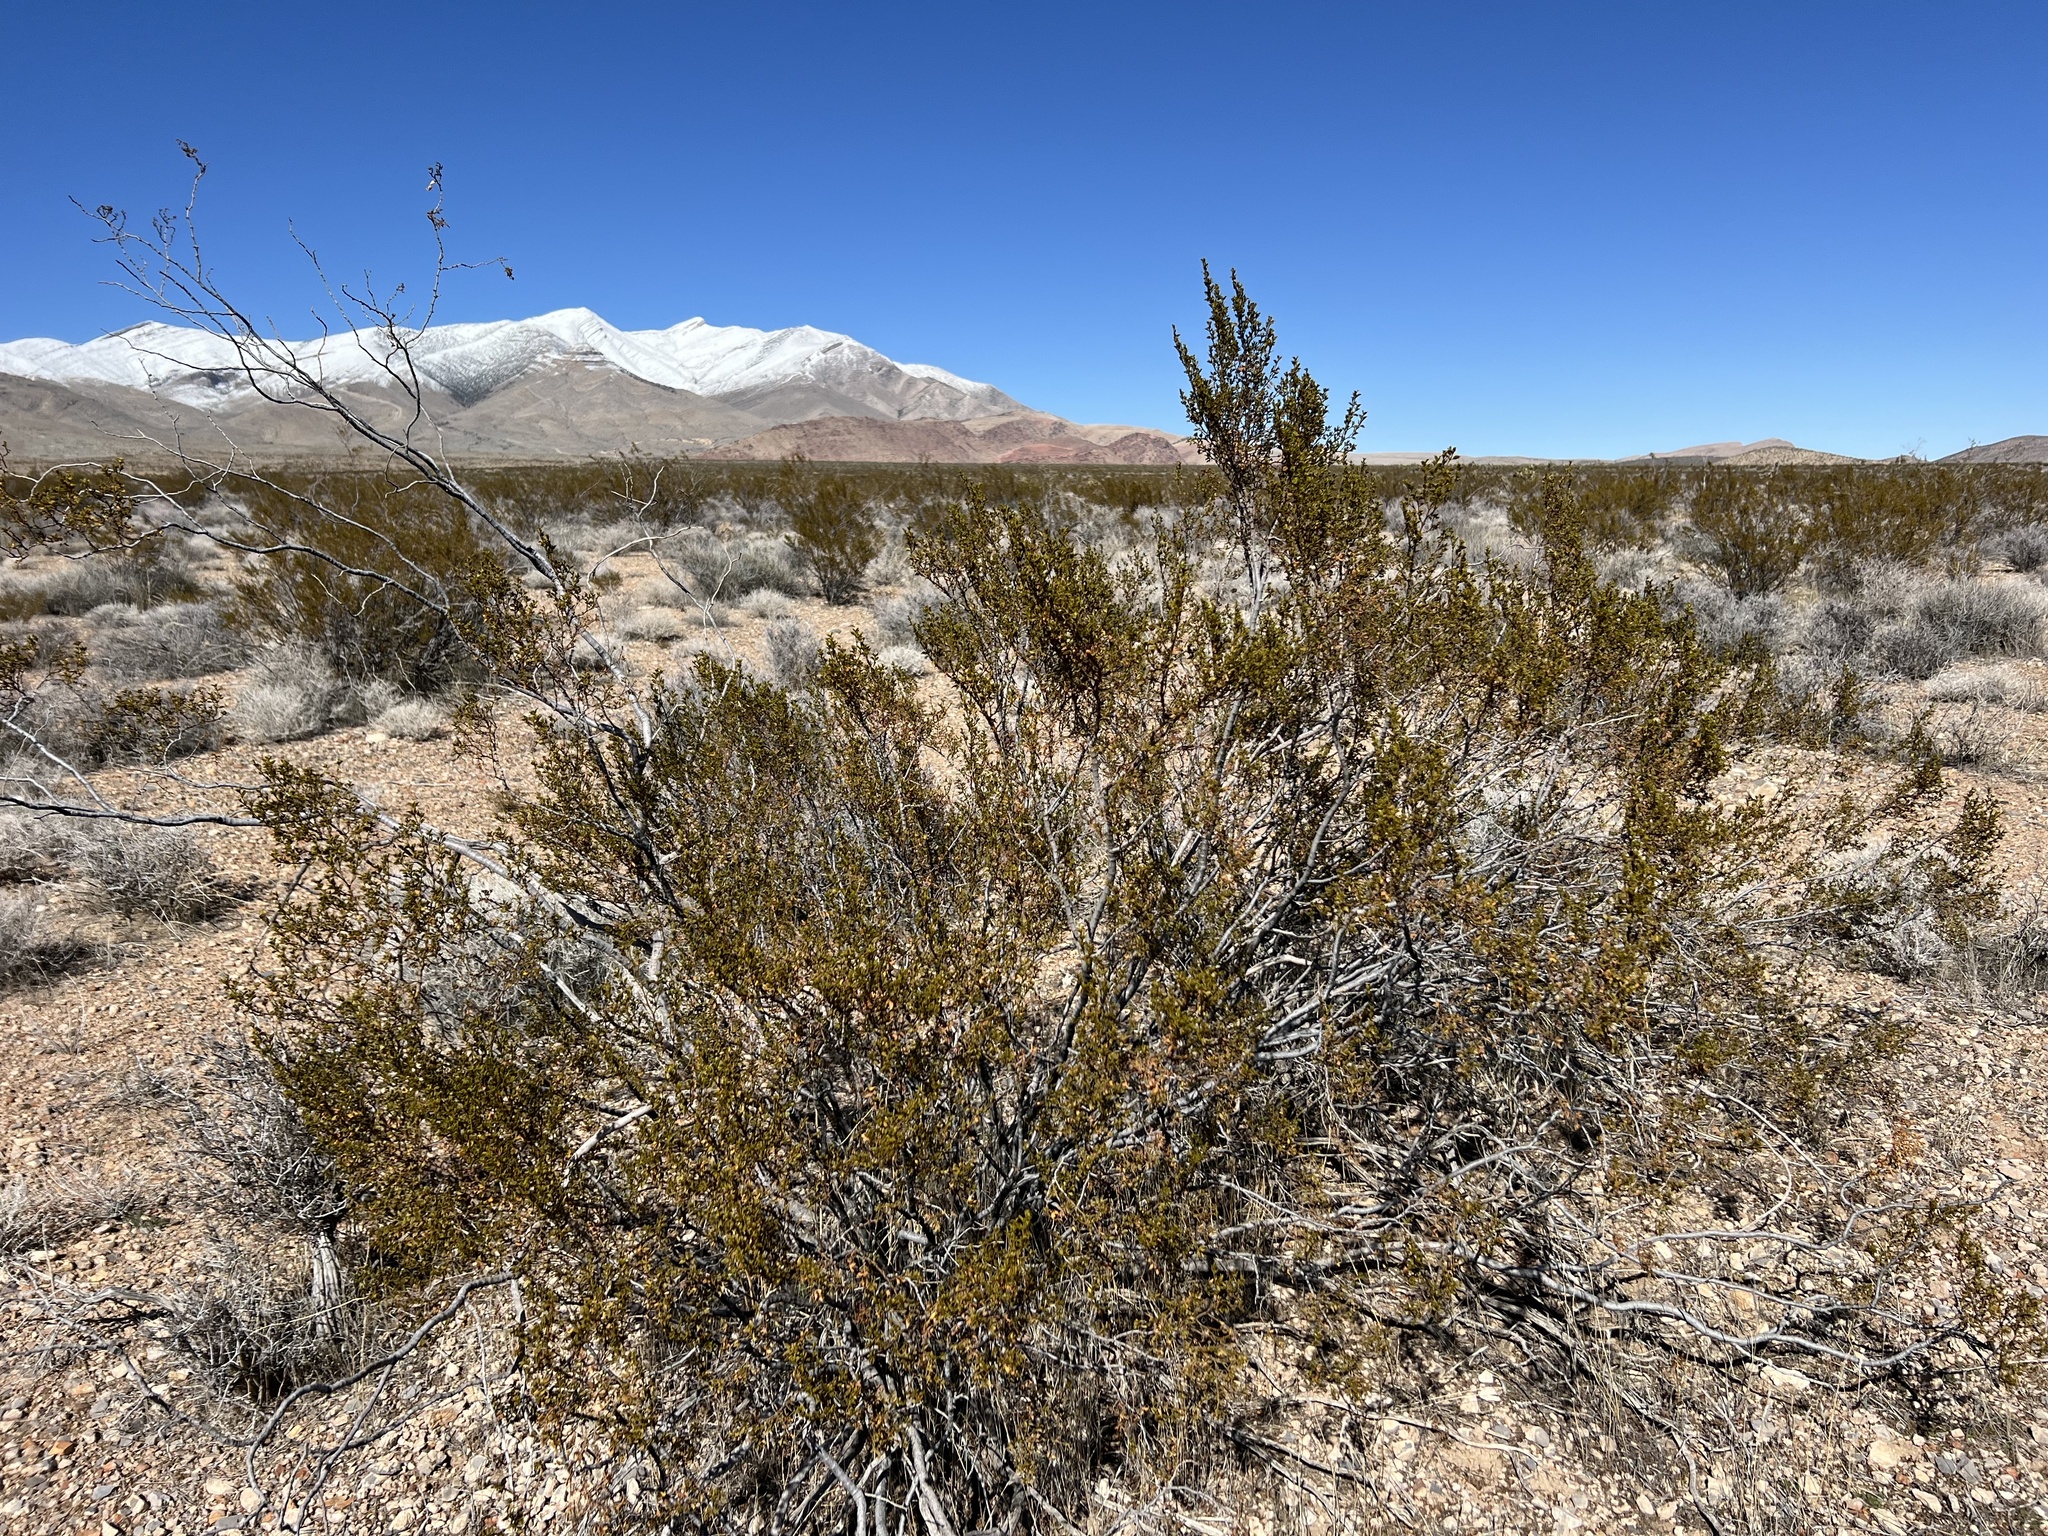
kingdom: Plantae
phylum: Tracheophyta
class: Magnoliopsida
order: Zygophyllales
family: Zygophyllaceae
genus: Larrea
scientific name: Larrea tridentata
